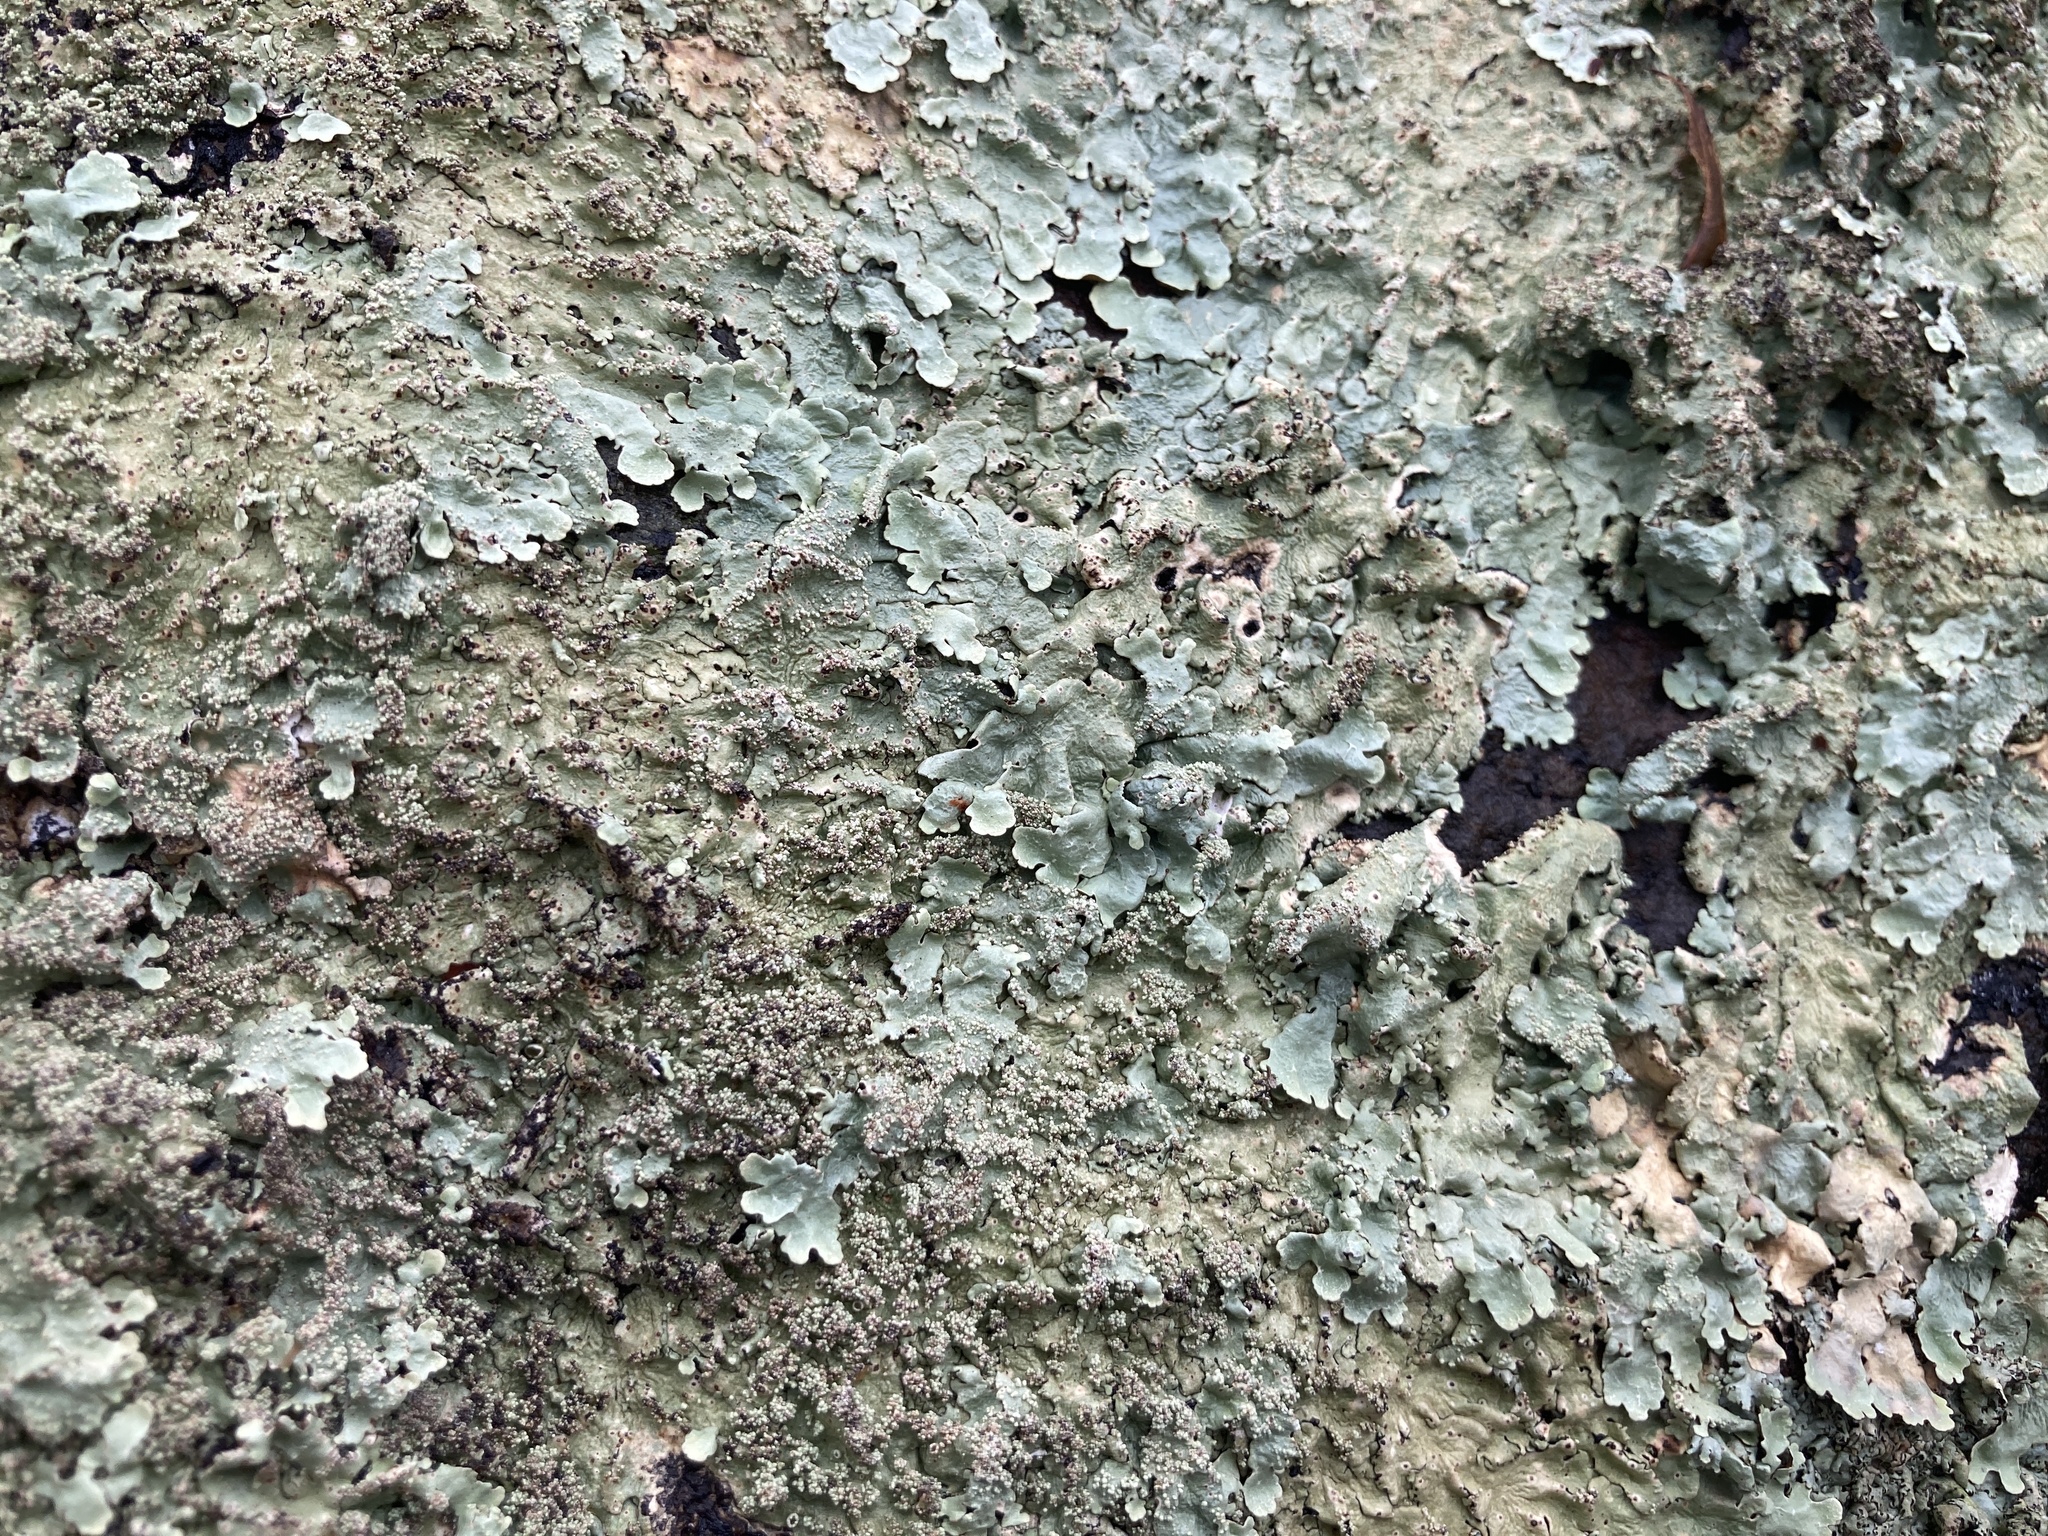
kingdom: Fungi
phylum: Ascomycota
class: Lecanoromycetes
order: Lecanorales
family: Parmeliaceae
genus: Flavoparmelia
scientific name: Flavoparmelia baltimorensis
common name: Rock greenshield
